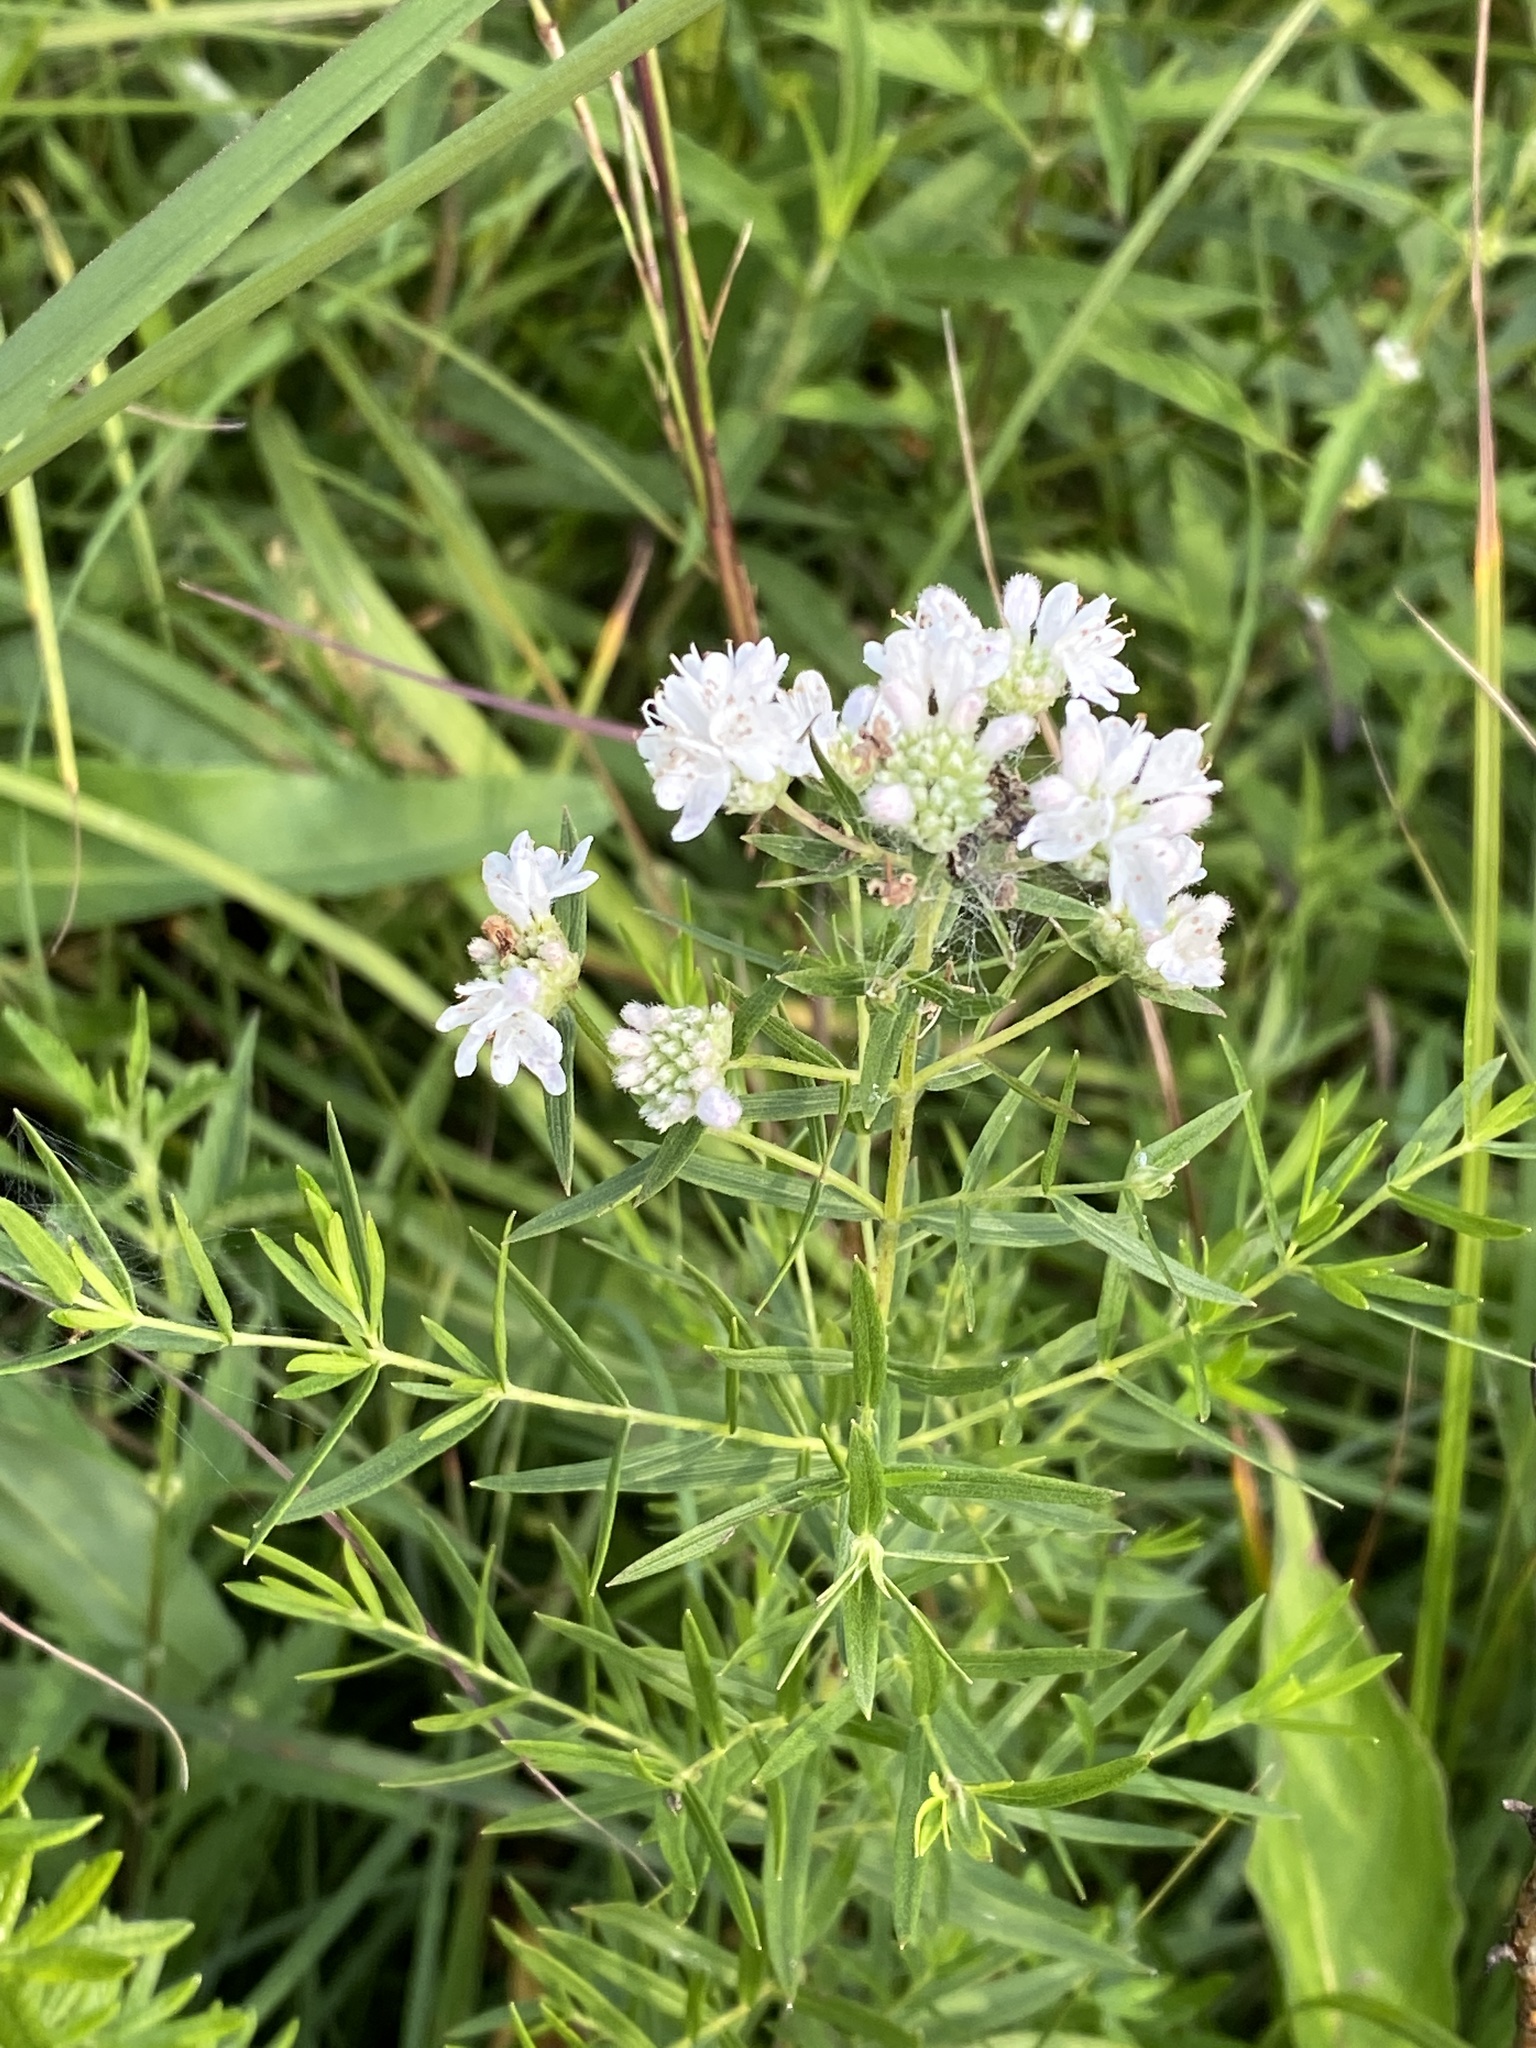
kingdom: Plantae
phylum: Tracheophyta
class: Magnoliopsida
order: Lamiales
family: Lamiaceae
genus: Pycnanthemum
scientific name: Pycnanthemum tenuifolium
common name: Narrow-leaf mountain-mint
